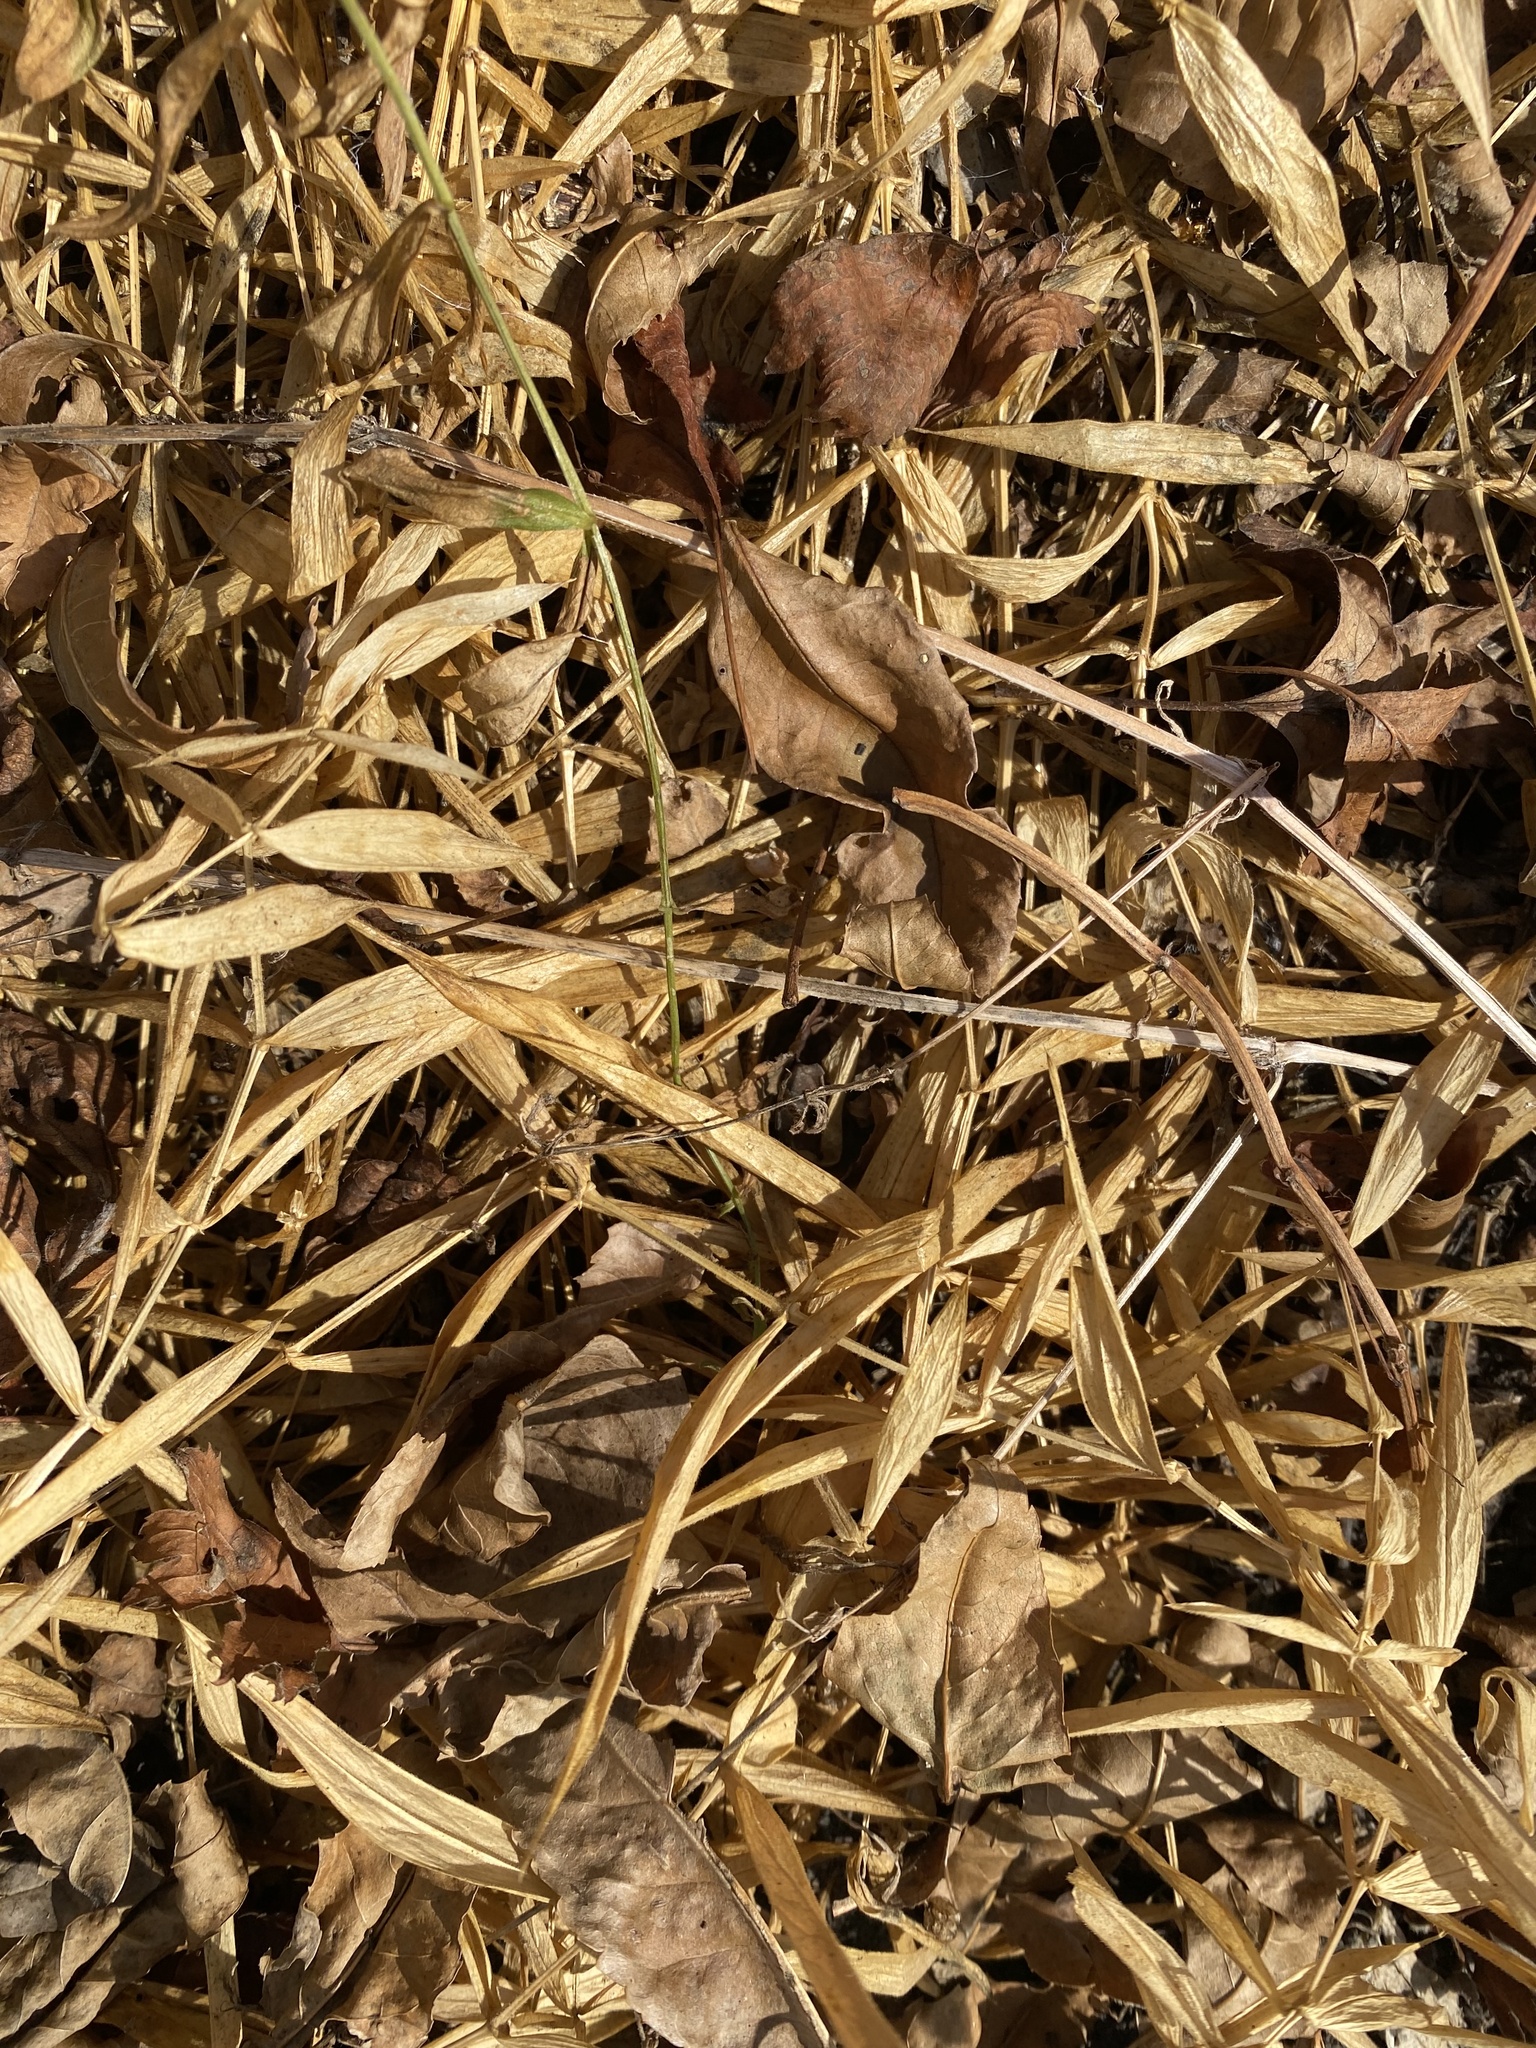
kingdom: Plantae
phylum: Tracheophyta
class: Magnoliopsida
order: Caryophyllales
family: Caryophyllaceae
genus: Rabelera
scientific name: Rabelera holostea
